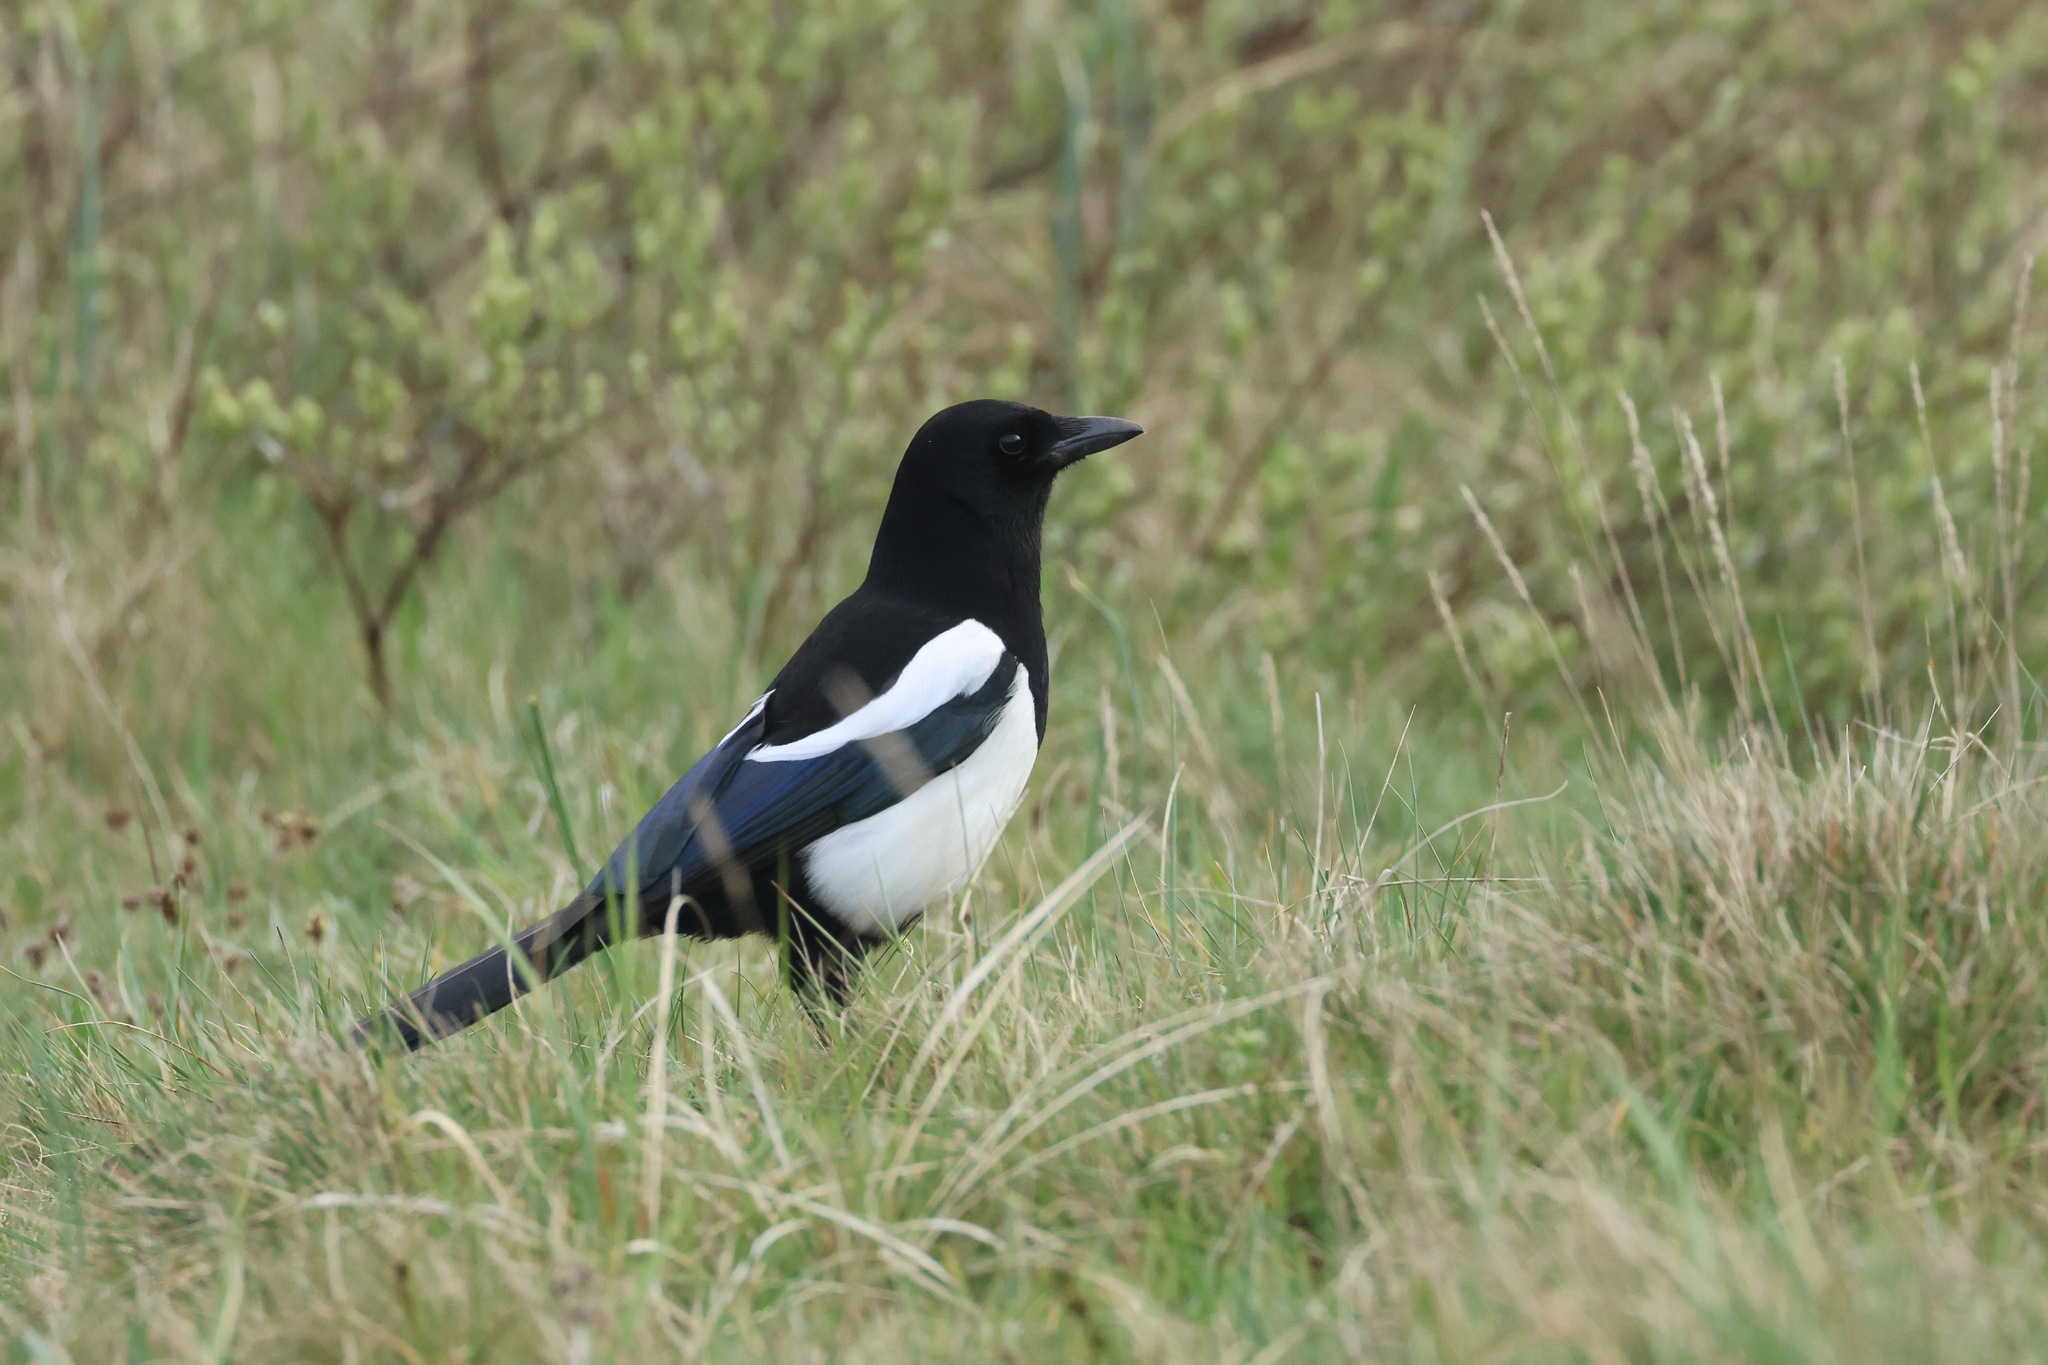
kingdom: Animalia
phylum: Chordata
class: Aves
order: Passeriformes
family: Corvidae
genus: Pica
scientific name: Pica pica
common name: Eurasian magpie
